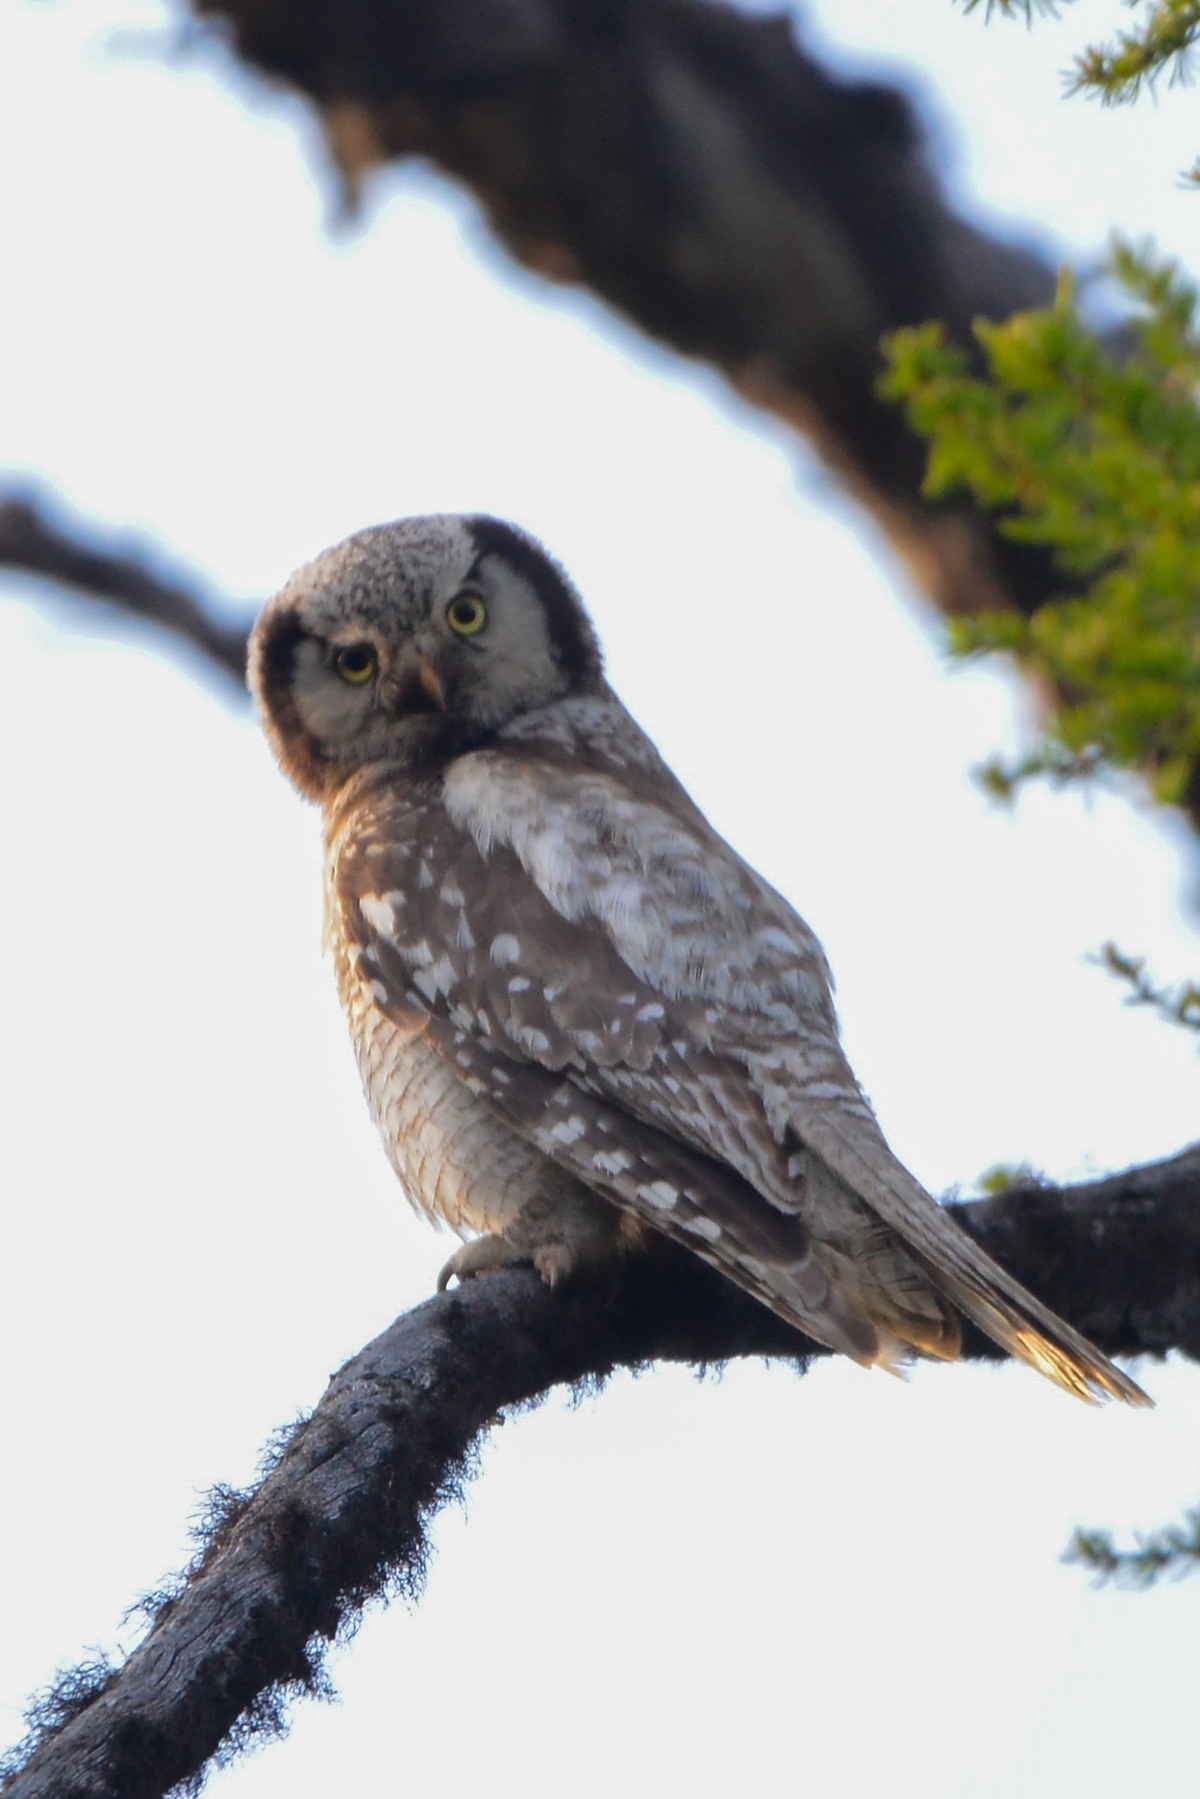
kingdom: Animalia
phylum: Chordata
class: Aves
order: Strigiformes
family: Strigidae
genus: Surnia
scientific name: Surnia ulula
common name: Northern hawk-owl
